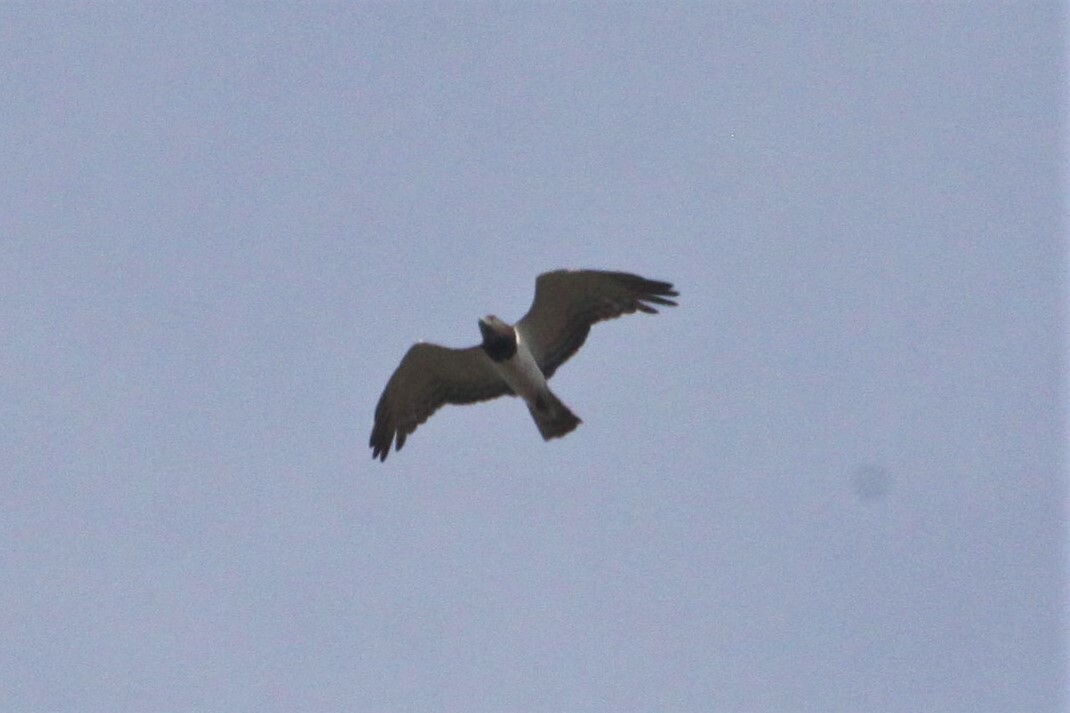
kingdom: Animalia
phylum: Chordata
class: Aves
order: Accipitriformes
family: Accipitridae
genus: Circaetus
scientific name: Circaetus pectoralis
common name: Black-chested snake eagle
